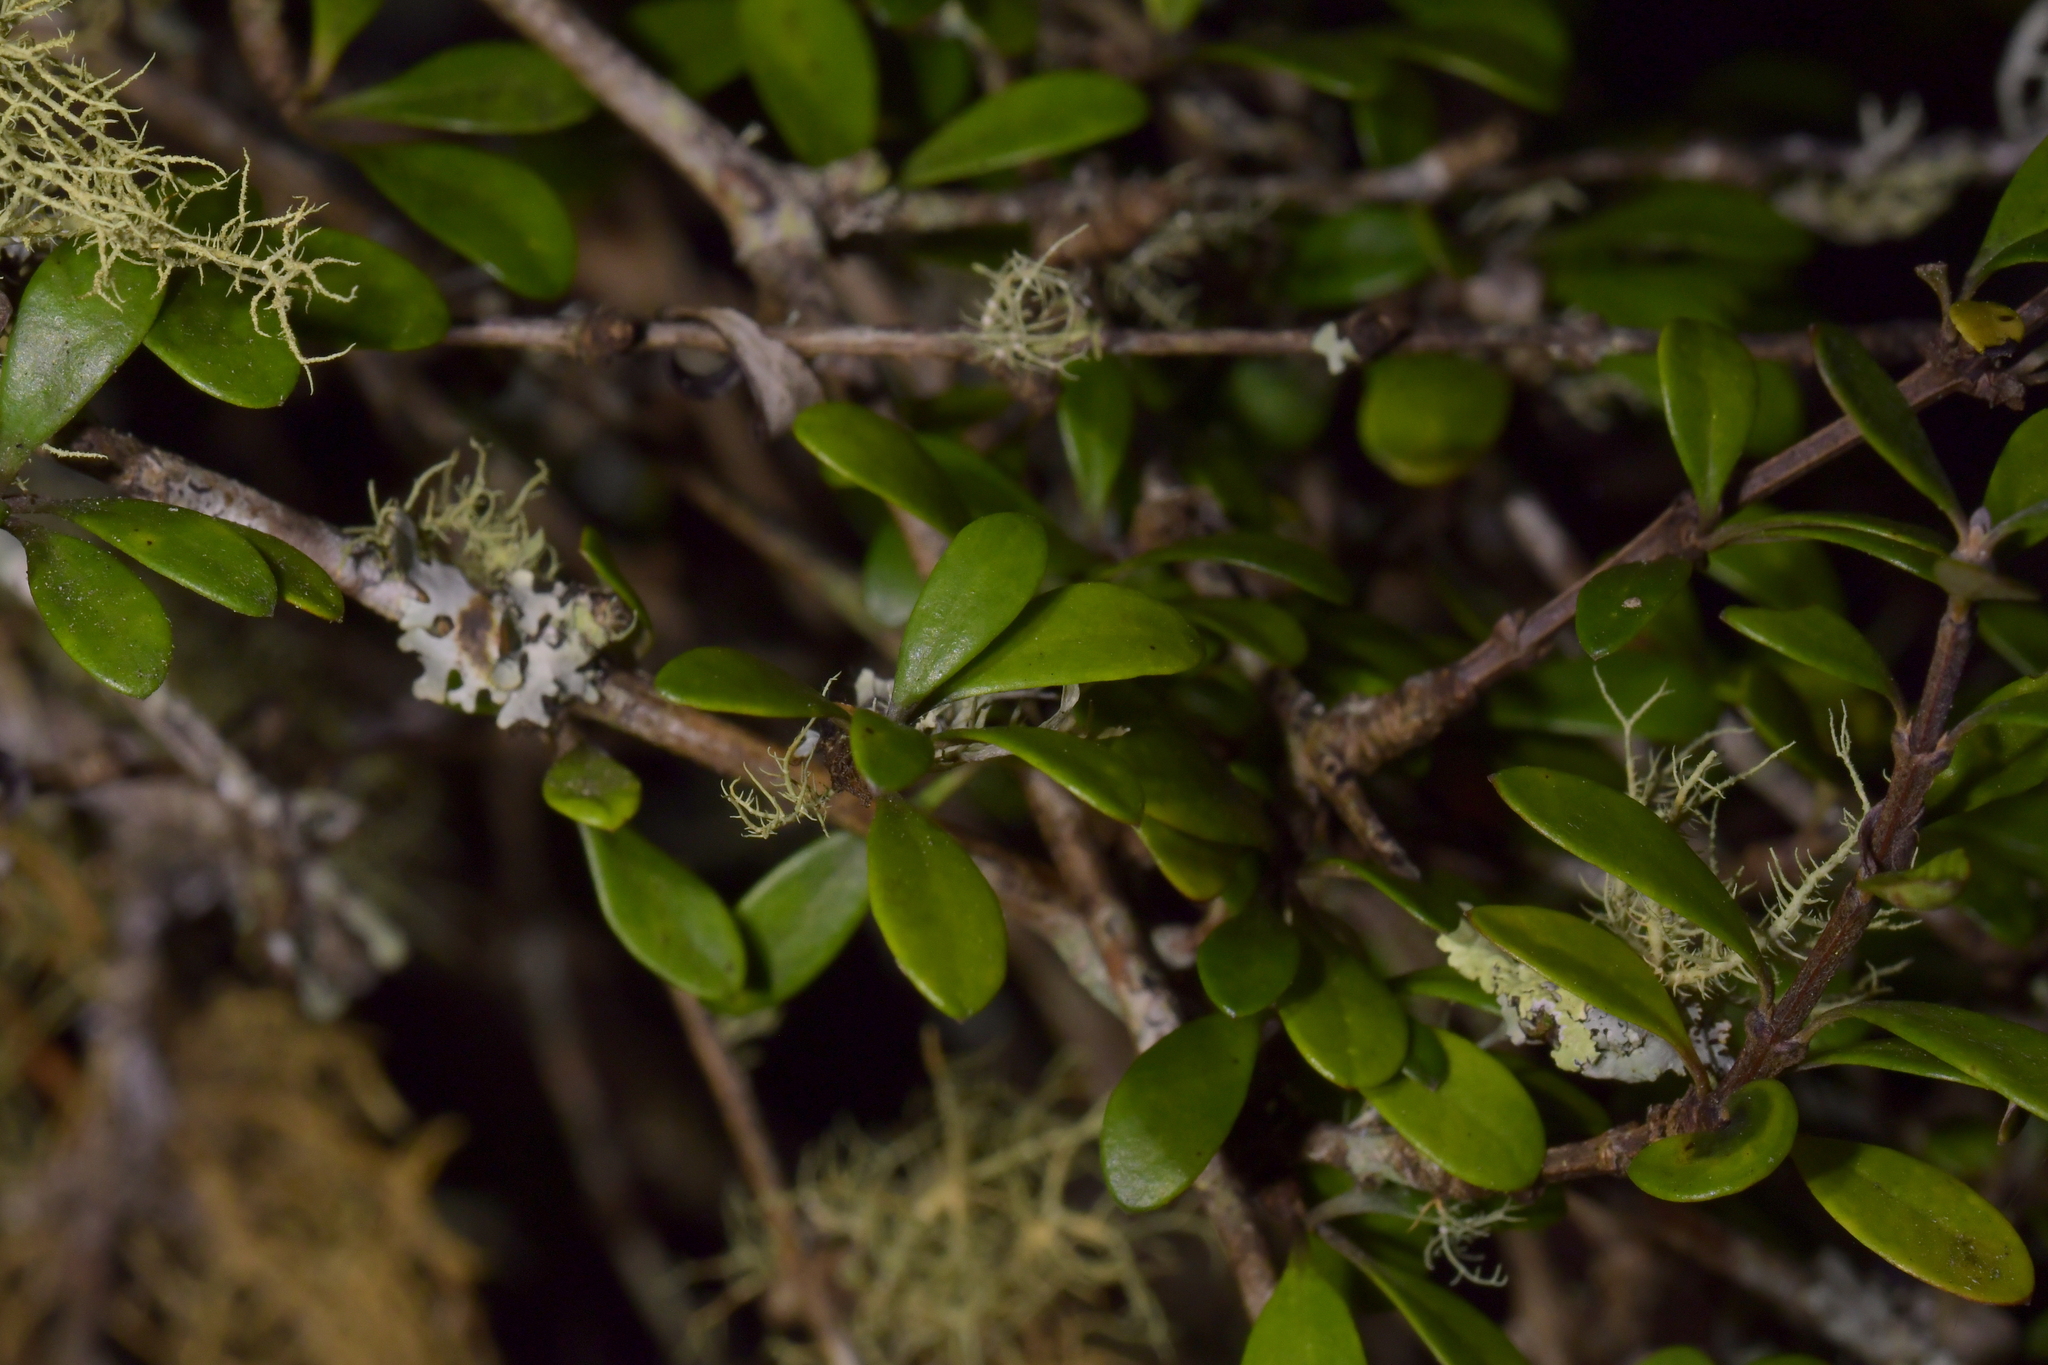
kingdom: Plantae
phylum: Tracheophyta
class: Magnoliopsida
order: Asterales
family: Asteraceae
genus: Olearia
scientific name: Olearia virgata
